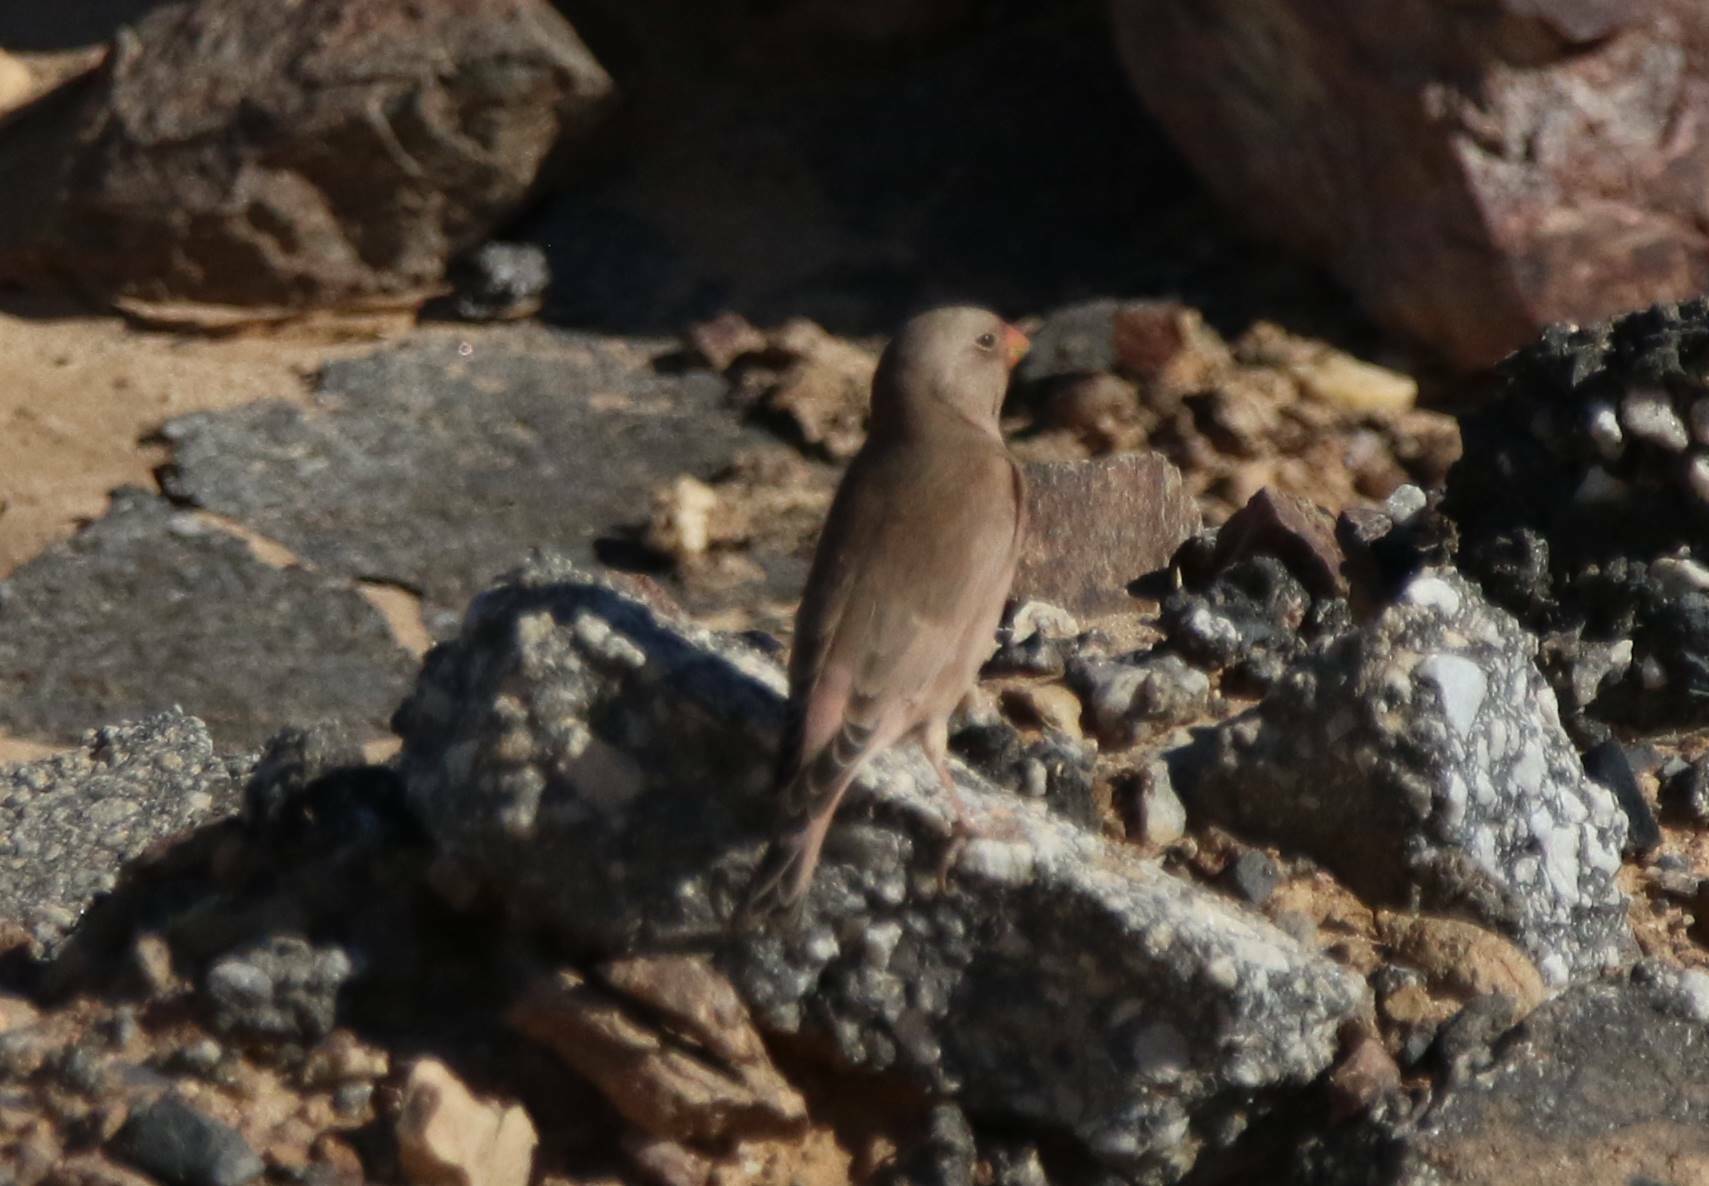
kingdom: Animalia
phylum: Chordata
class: Aves
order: Passeriformes
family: Fringillidae
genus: Bucanetes
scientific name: Bucanetes githagineus
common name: Trumpeter finch
